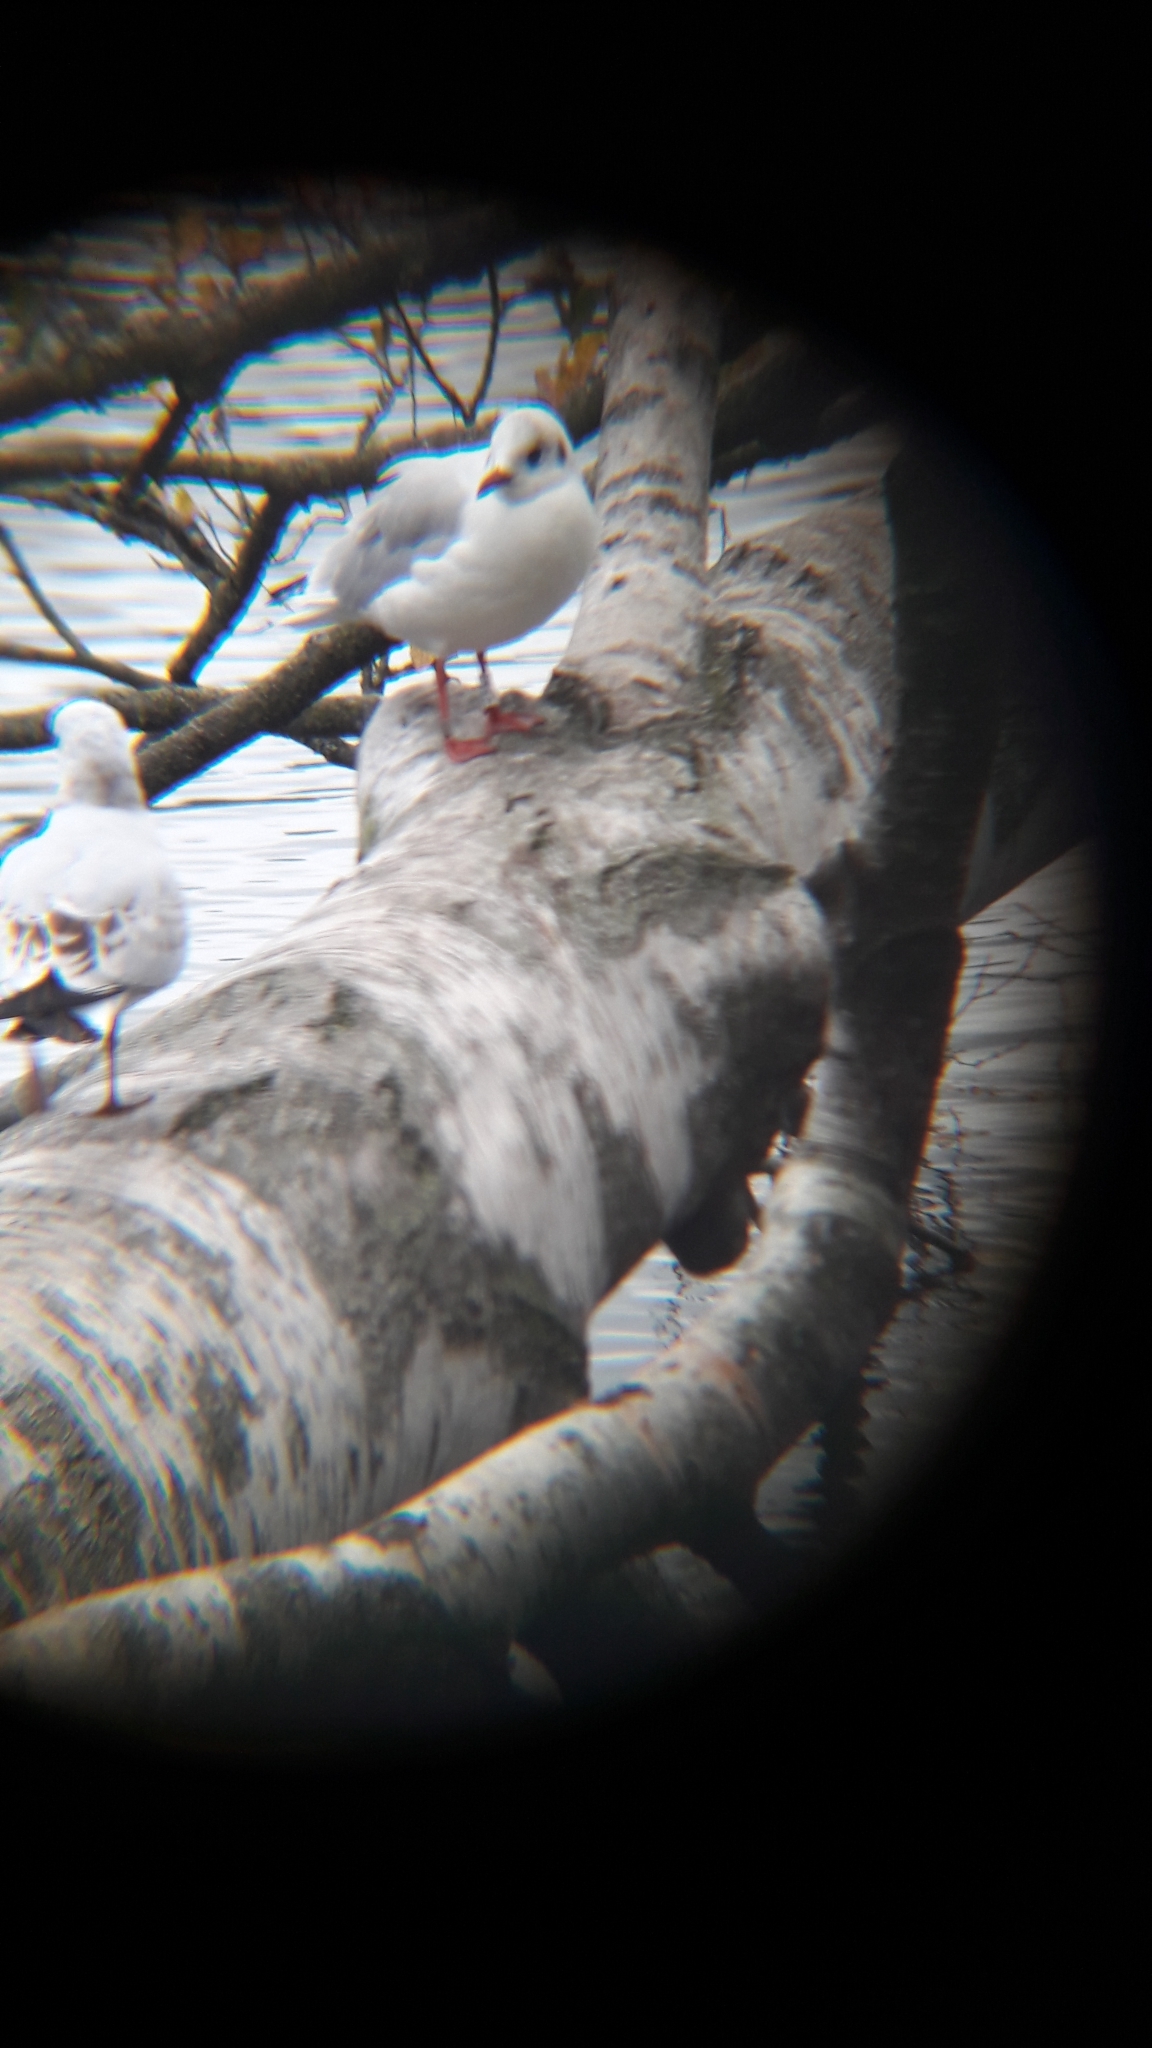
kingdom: Animalia
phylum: Chordata
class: Aves
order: Charadriiformes
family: Laridae
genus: Chroicocephalus
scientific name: Chroicocephalus ridibundus
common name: Black-headed gull
